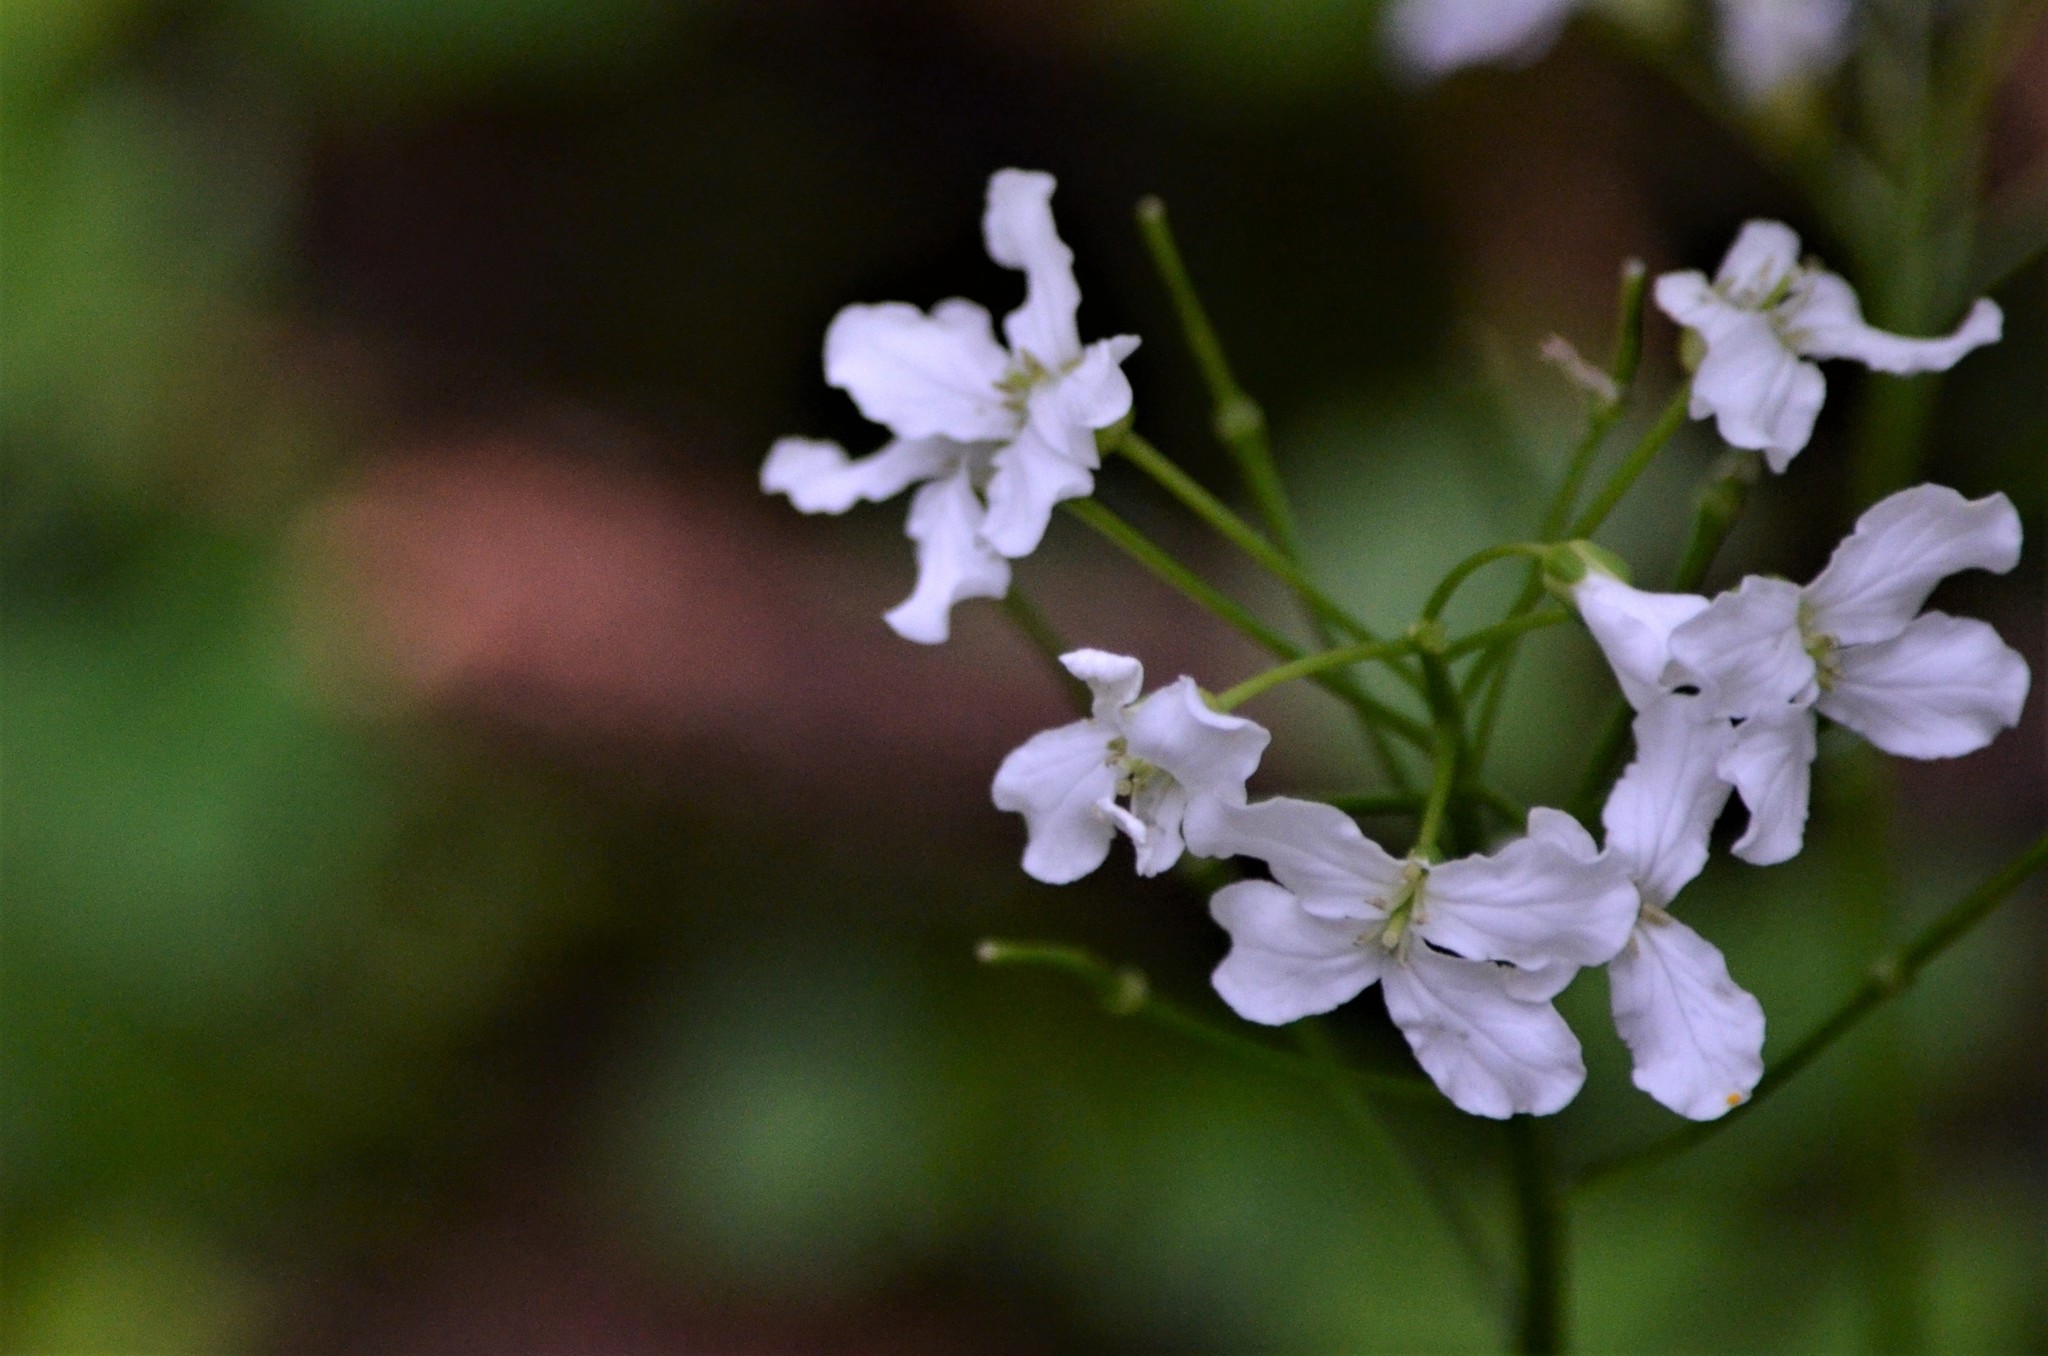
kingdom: Plantae
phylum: Tracheophyta
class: Magnoliopsida
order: Brassicales
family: Brassicaceae
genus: Cardamine
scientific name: Cardamine trifolia
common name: Trefoil cress
